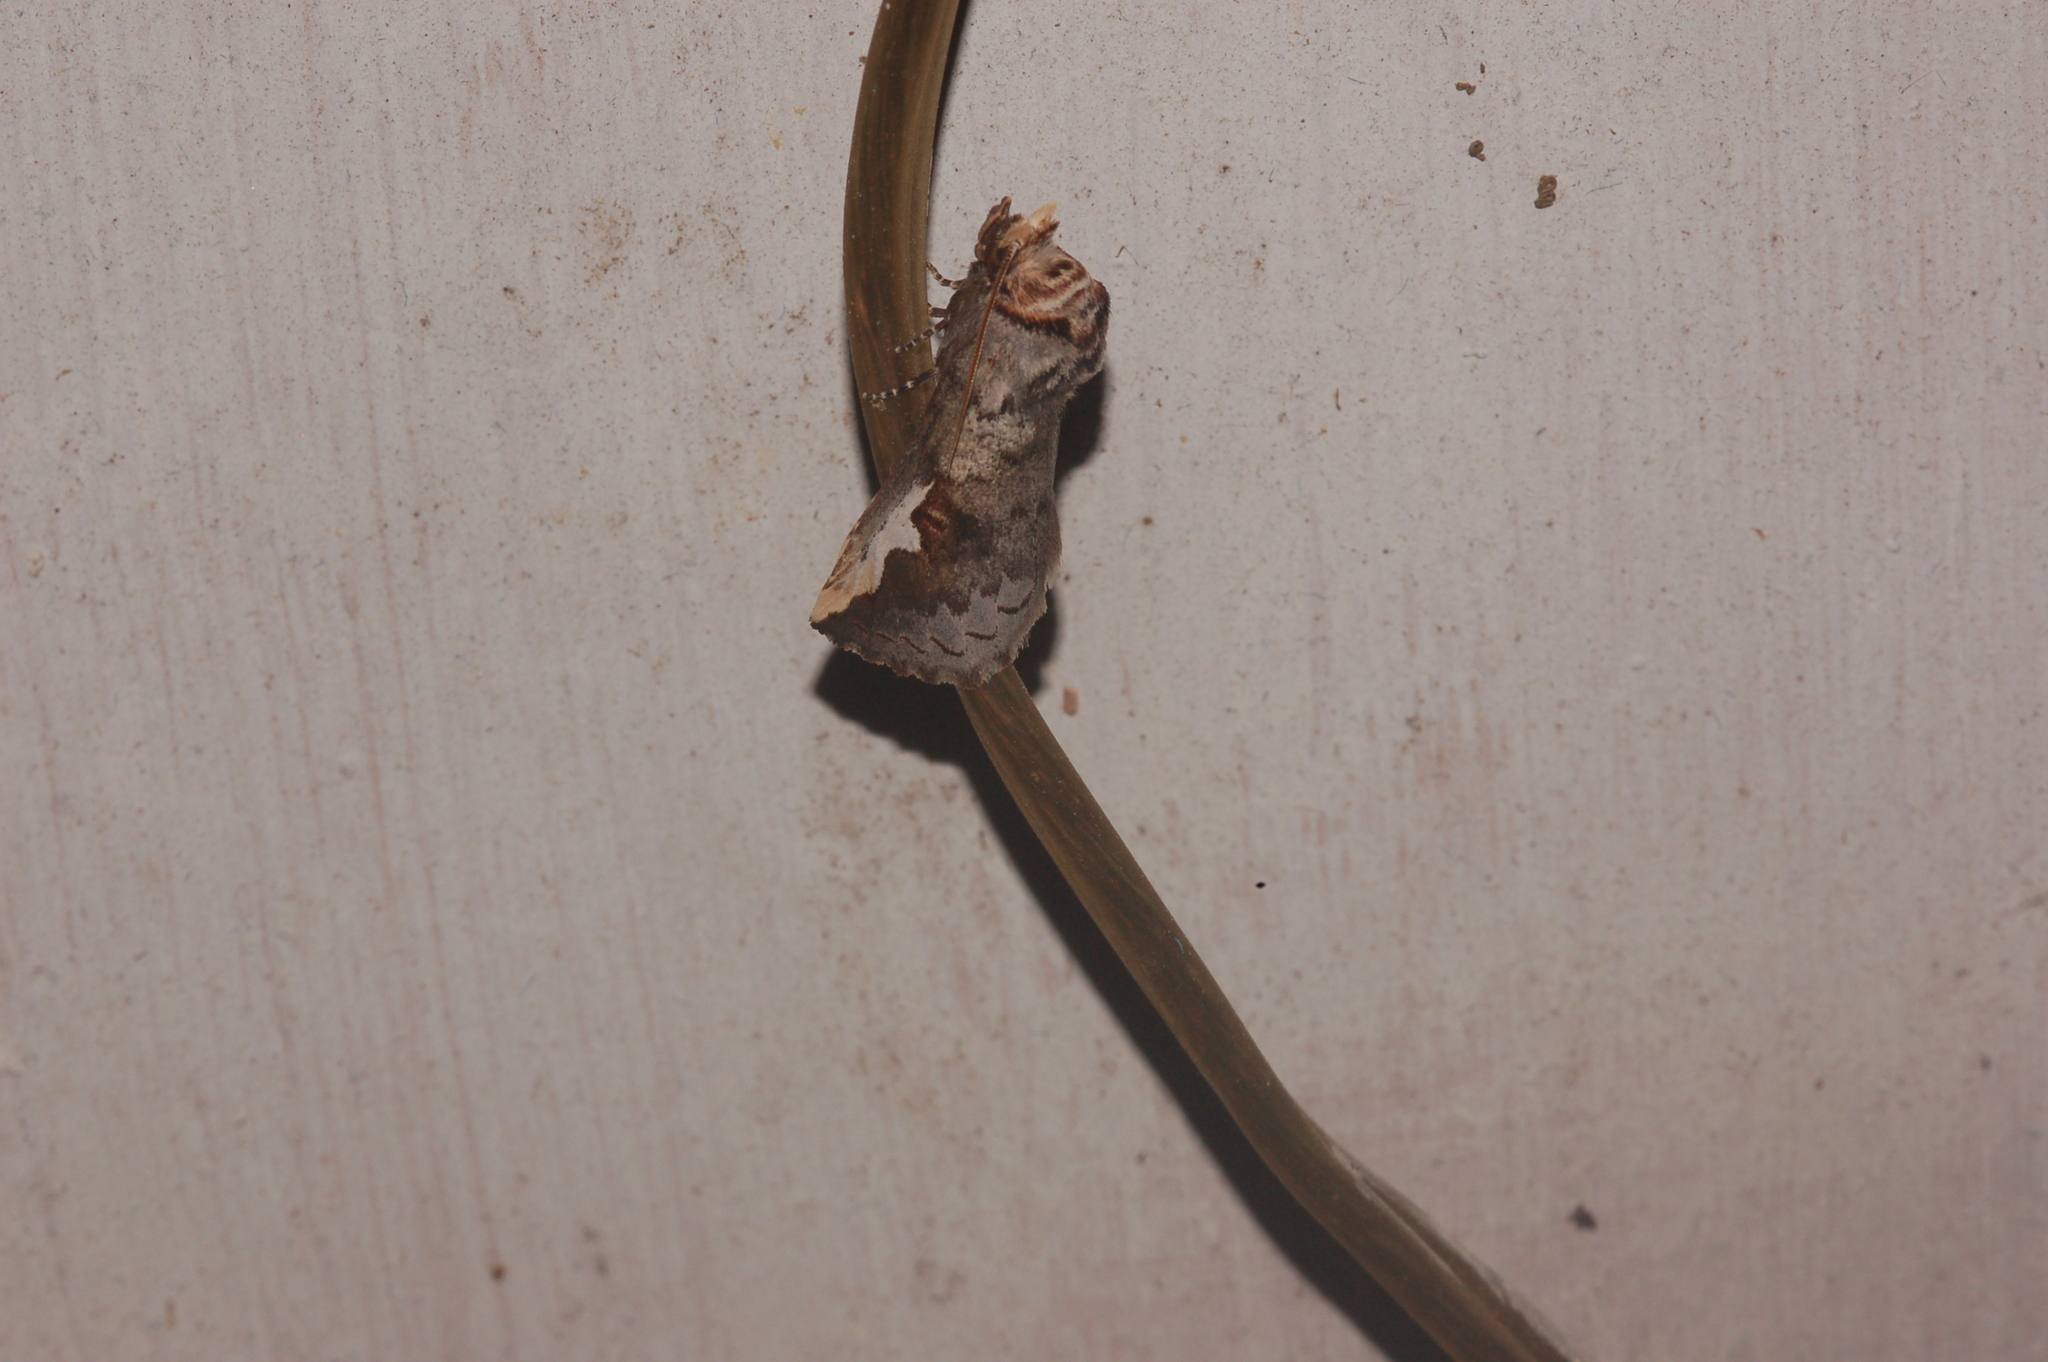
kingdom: Animalia
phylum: Arthropoda
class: Insecta
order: Lepidoptera
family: Notodontidae
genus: Symmerista
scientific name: Symmerista albifrons
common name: White-headed prominent
